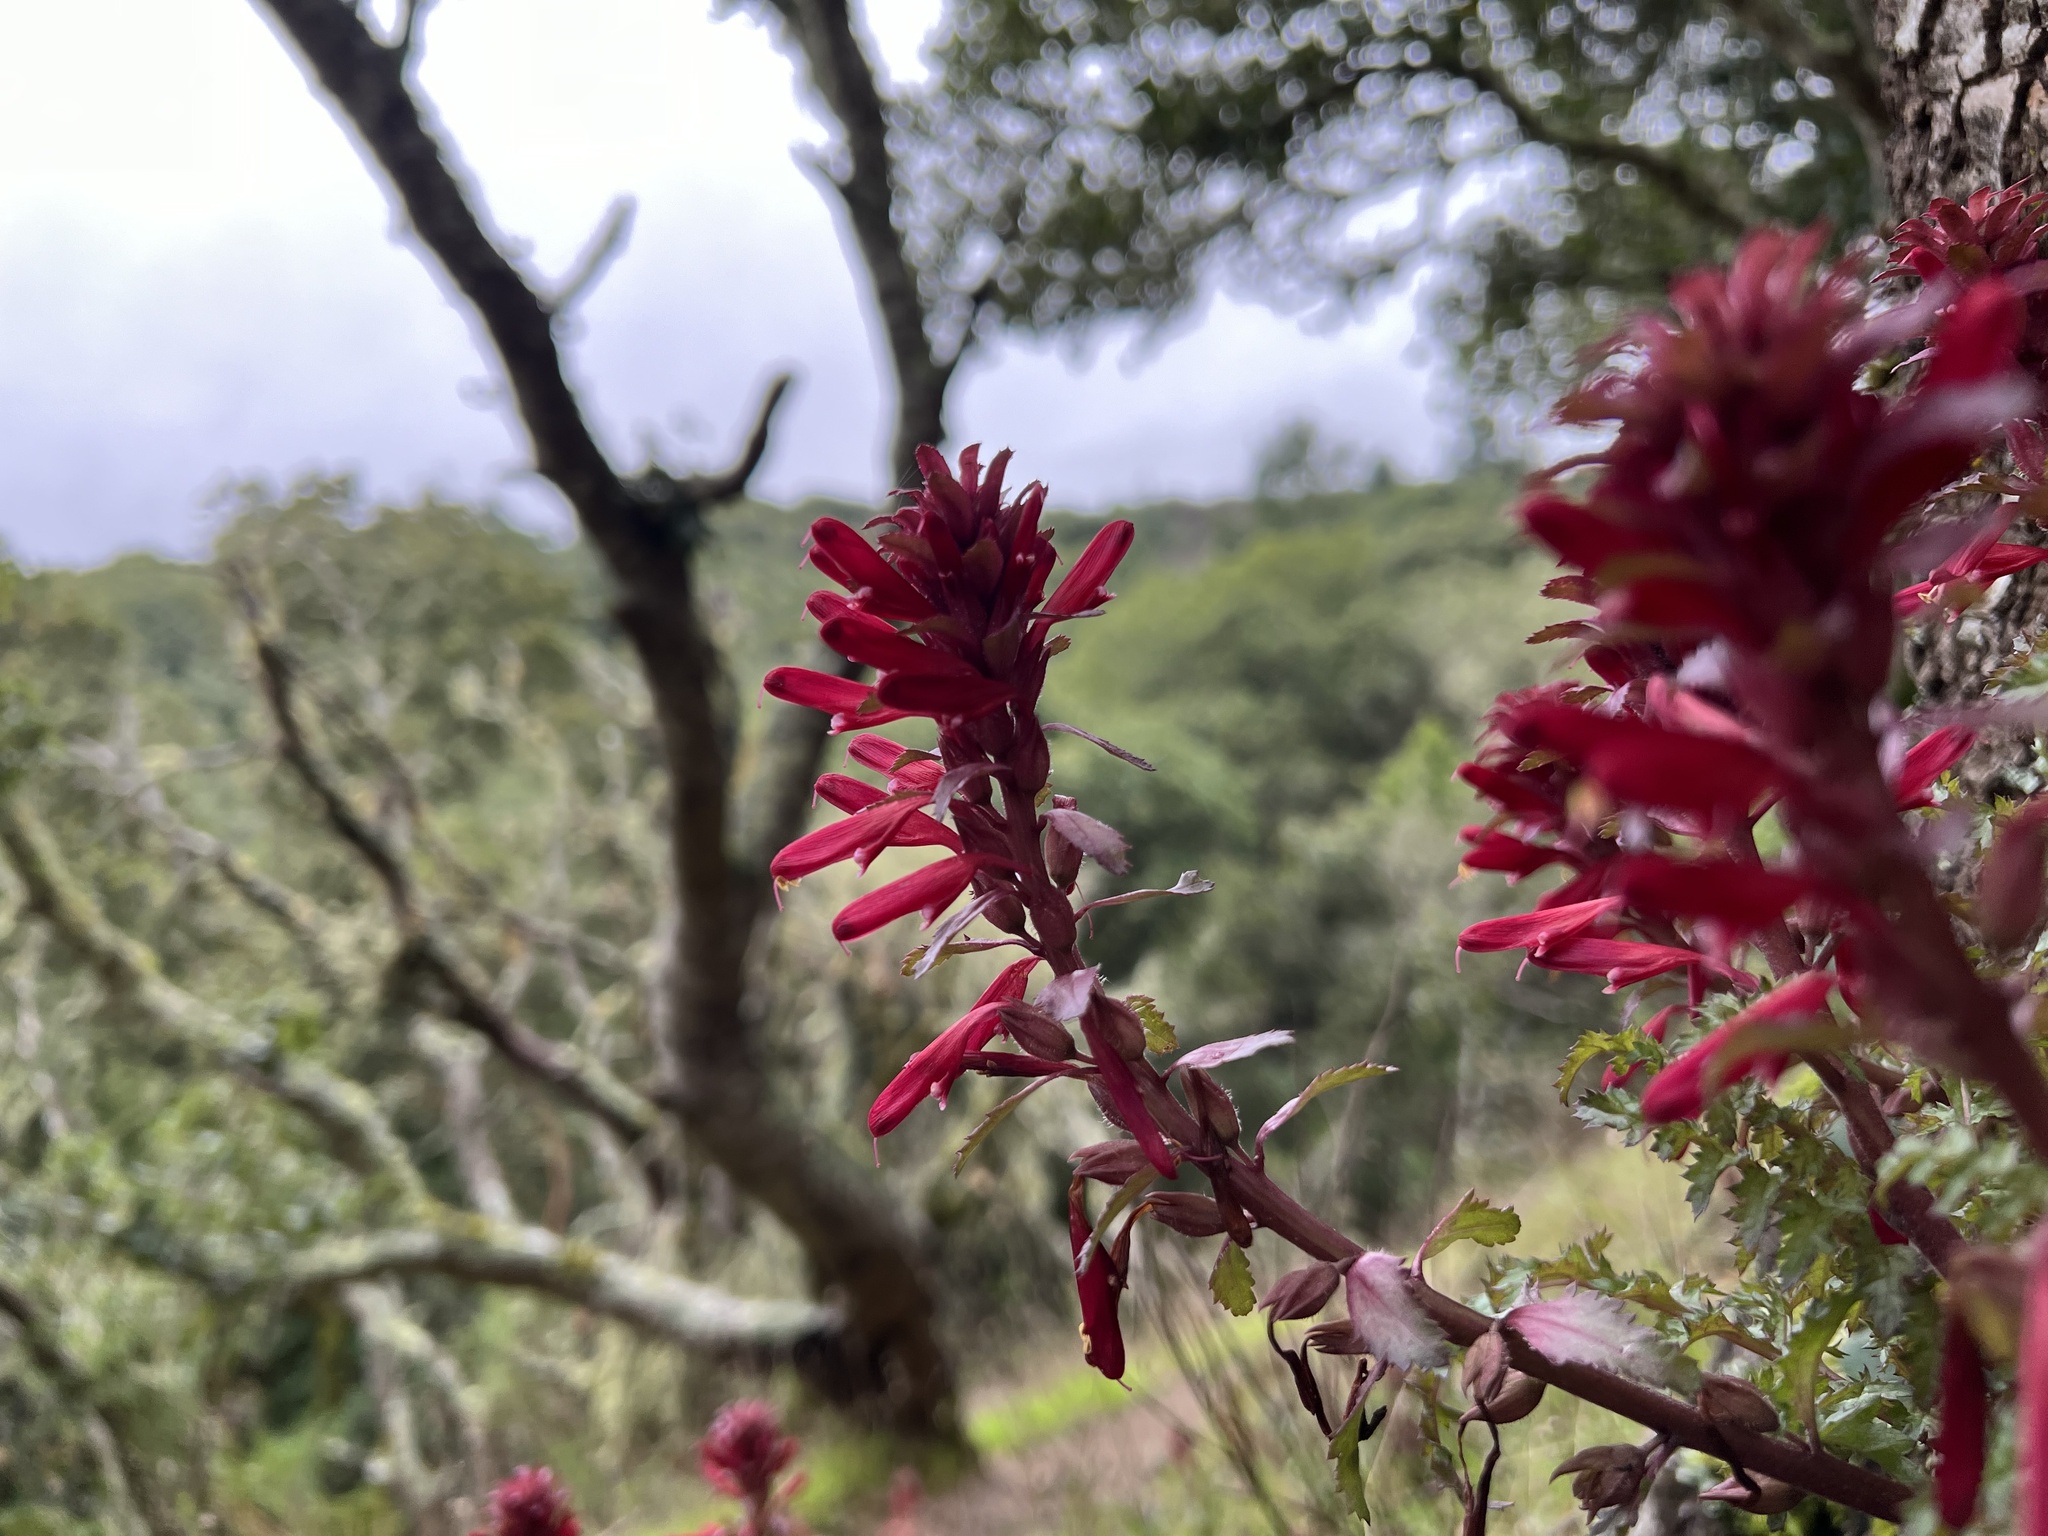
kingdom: Plantae
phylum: Tracheophyta
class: Magnoliopsida
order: Lamiales
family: Orobanchaceae
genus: Pedicularis
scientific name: Pedicularis densiflora
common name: Indian warrior
